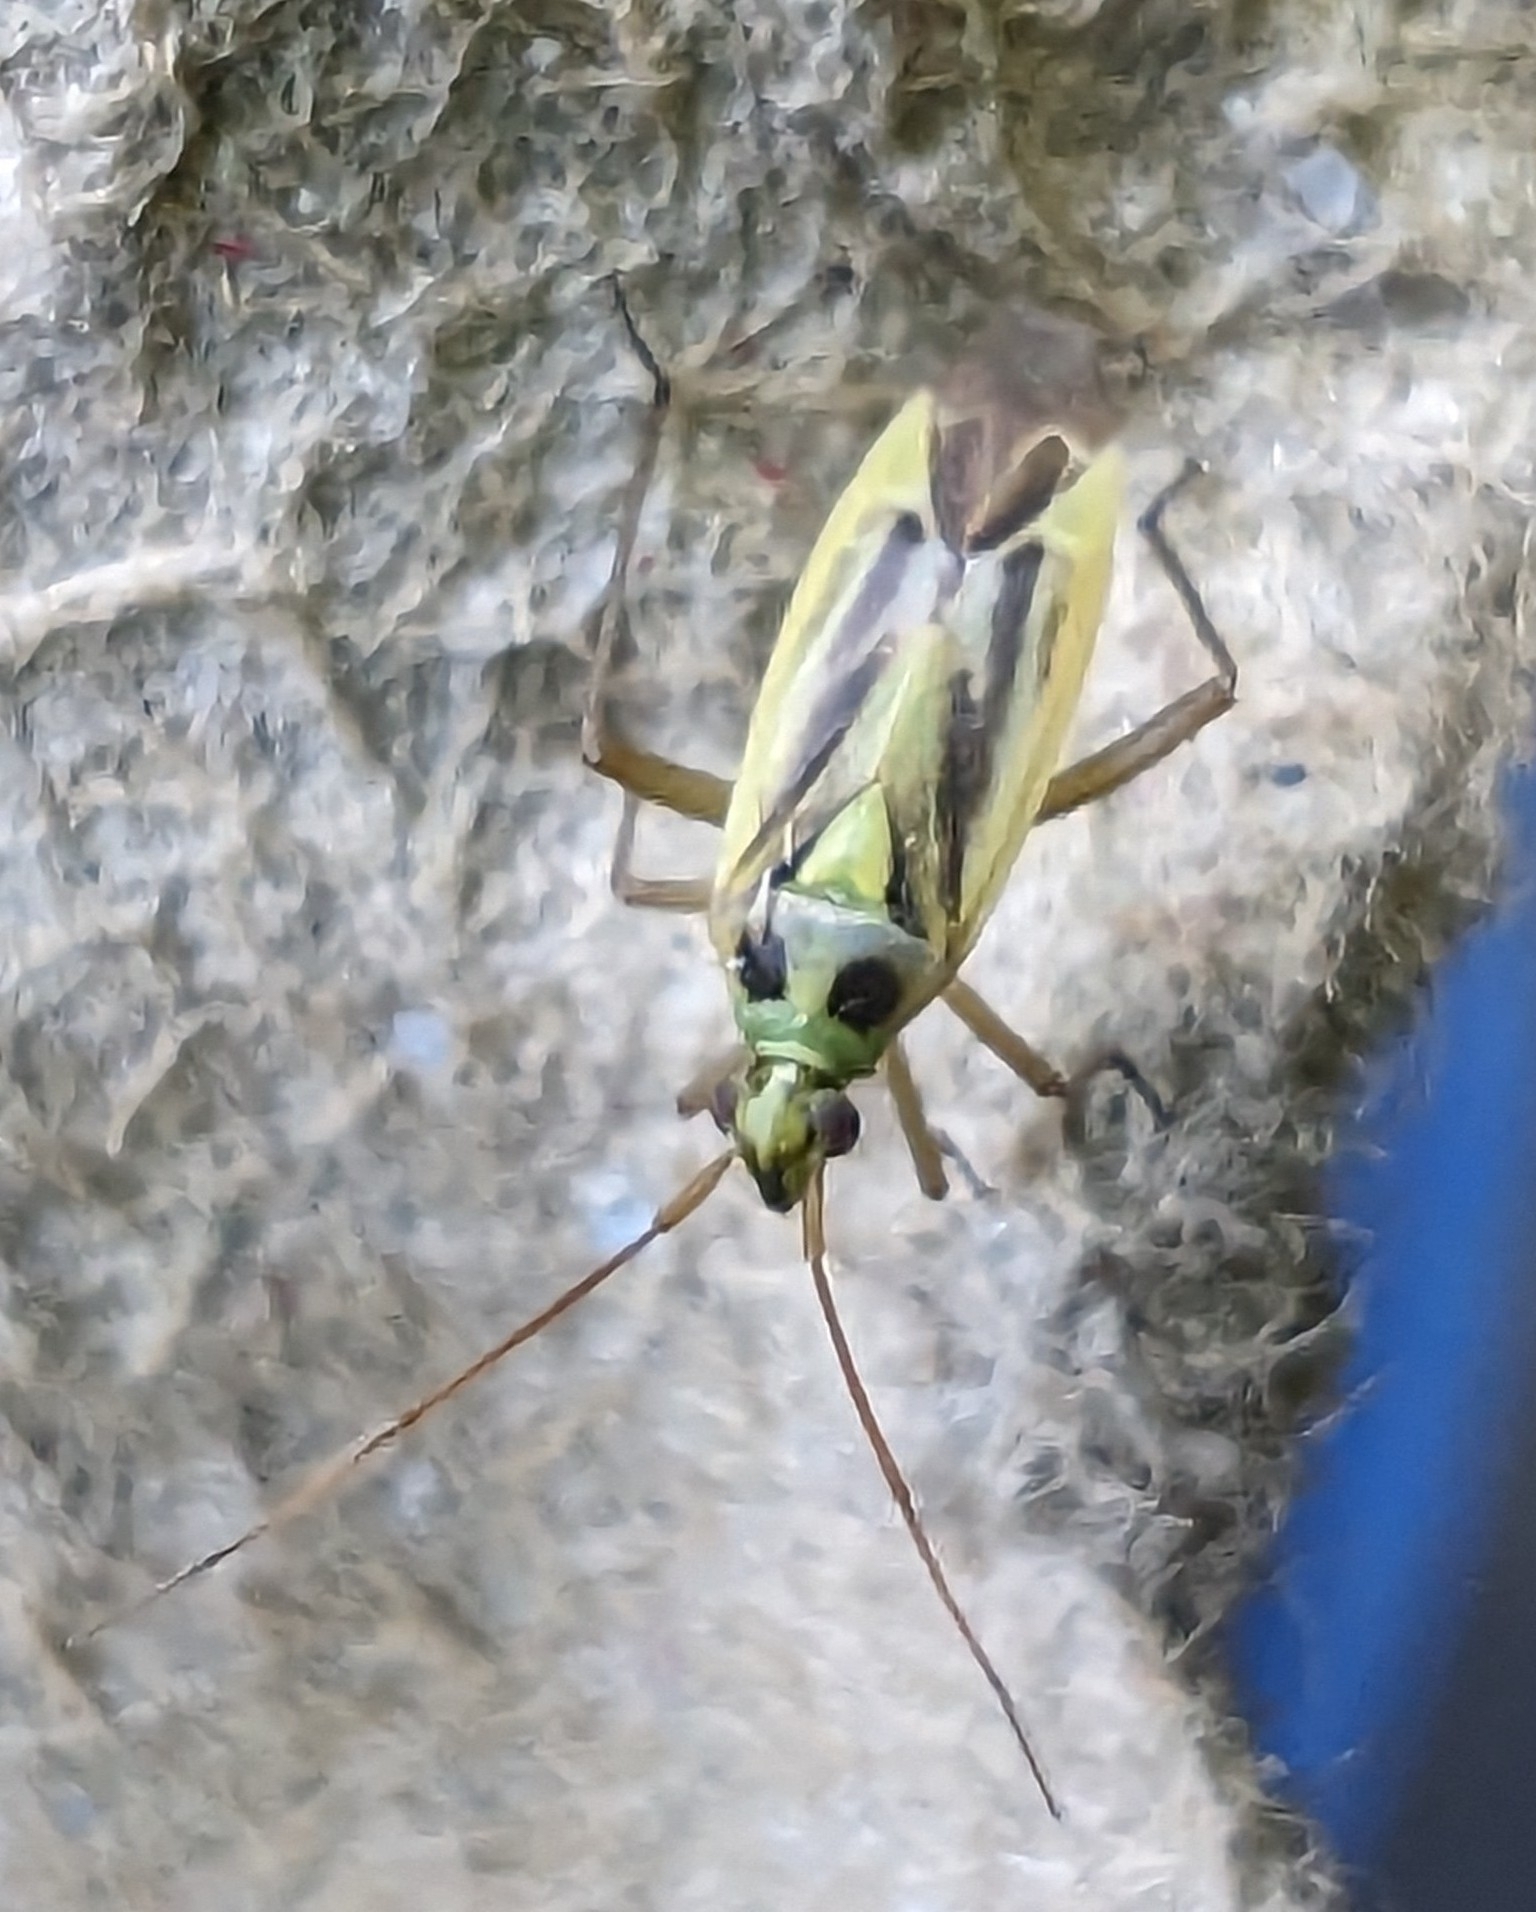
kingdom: Animalia
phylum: Arthropoda
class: Insecta
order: Hemiptera
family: Miridae
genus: Stenotus
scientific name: Stenotus binotatus
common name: Plant bug
